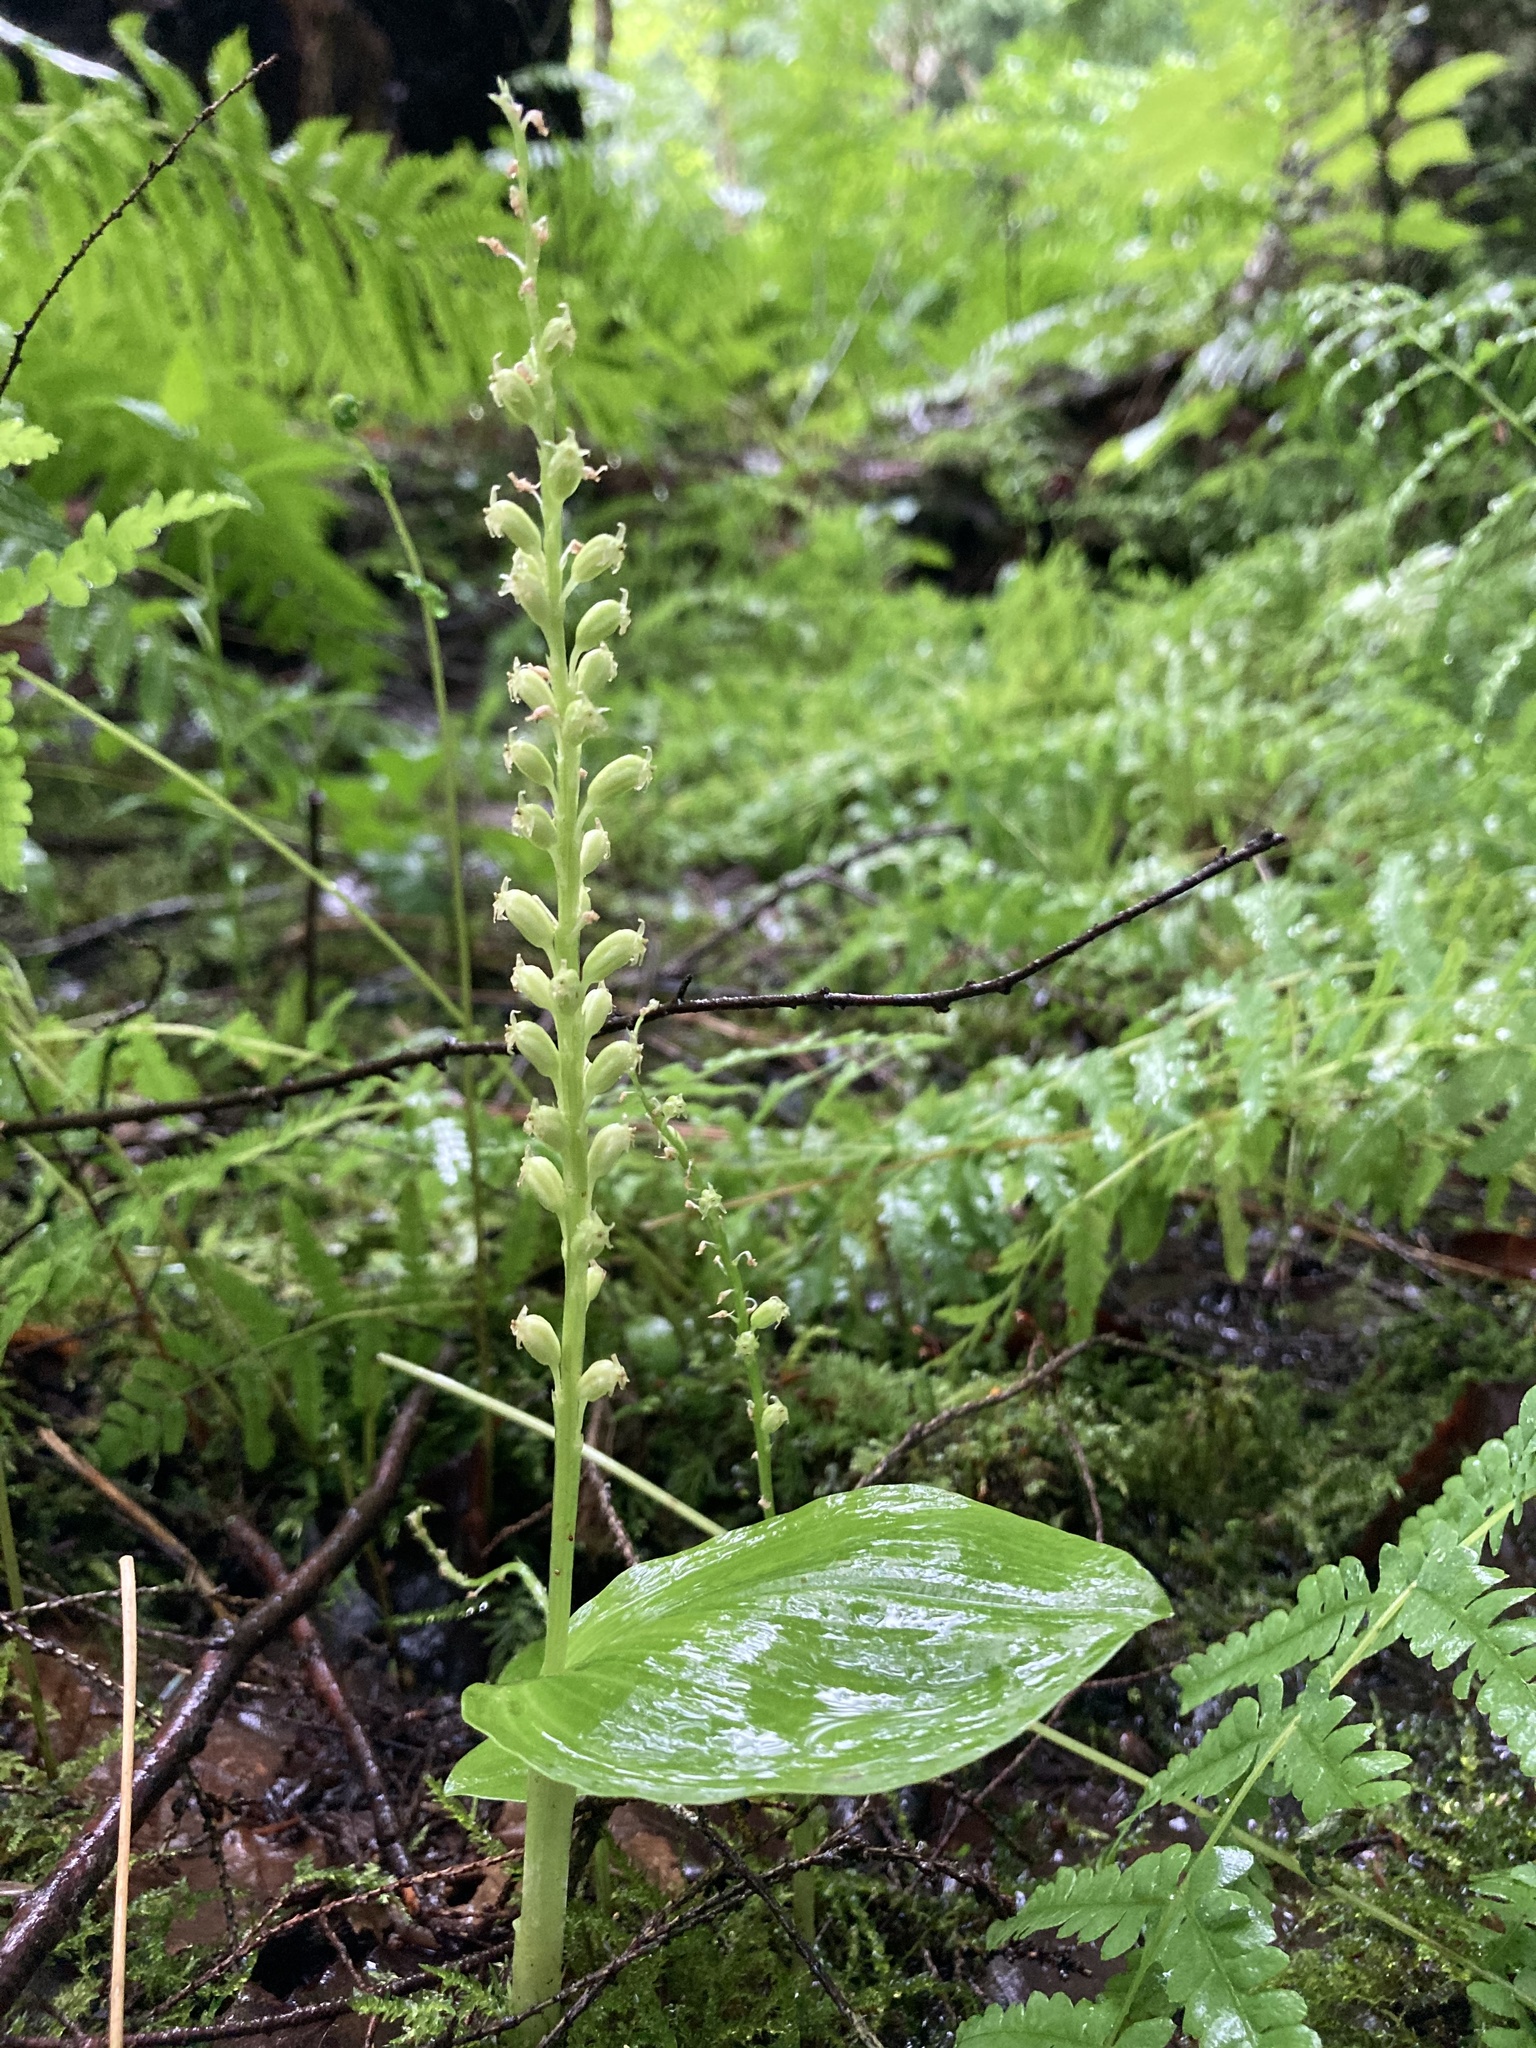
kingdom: Plantae
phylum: Tracheophyta
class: Liliopsida
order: Asparagales
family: Orchidaceae
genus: Malaxis
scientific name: Malaxis monophyllos
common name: White adder's-mouth
